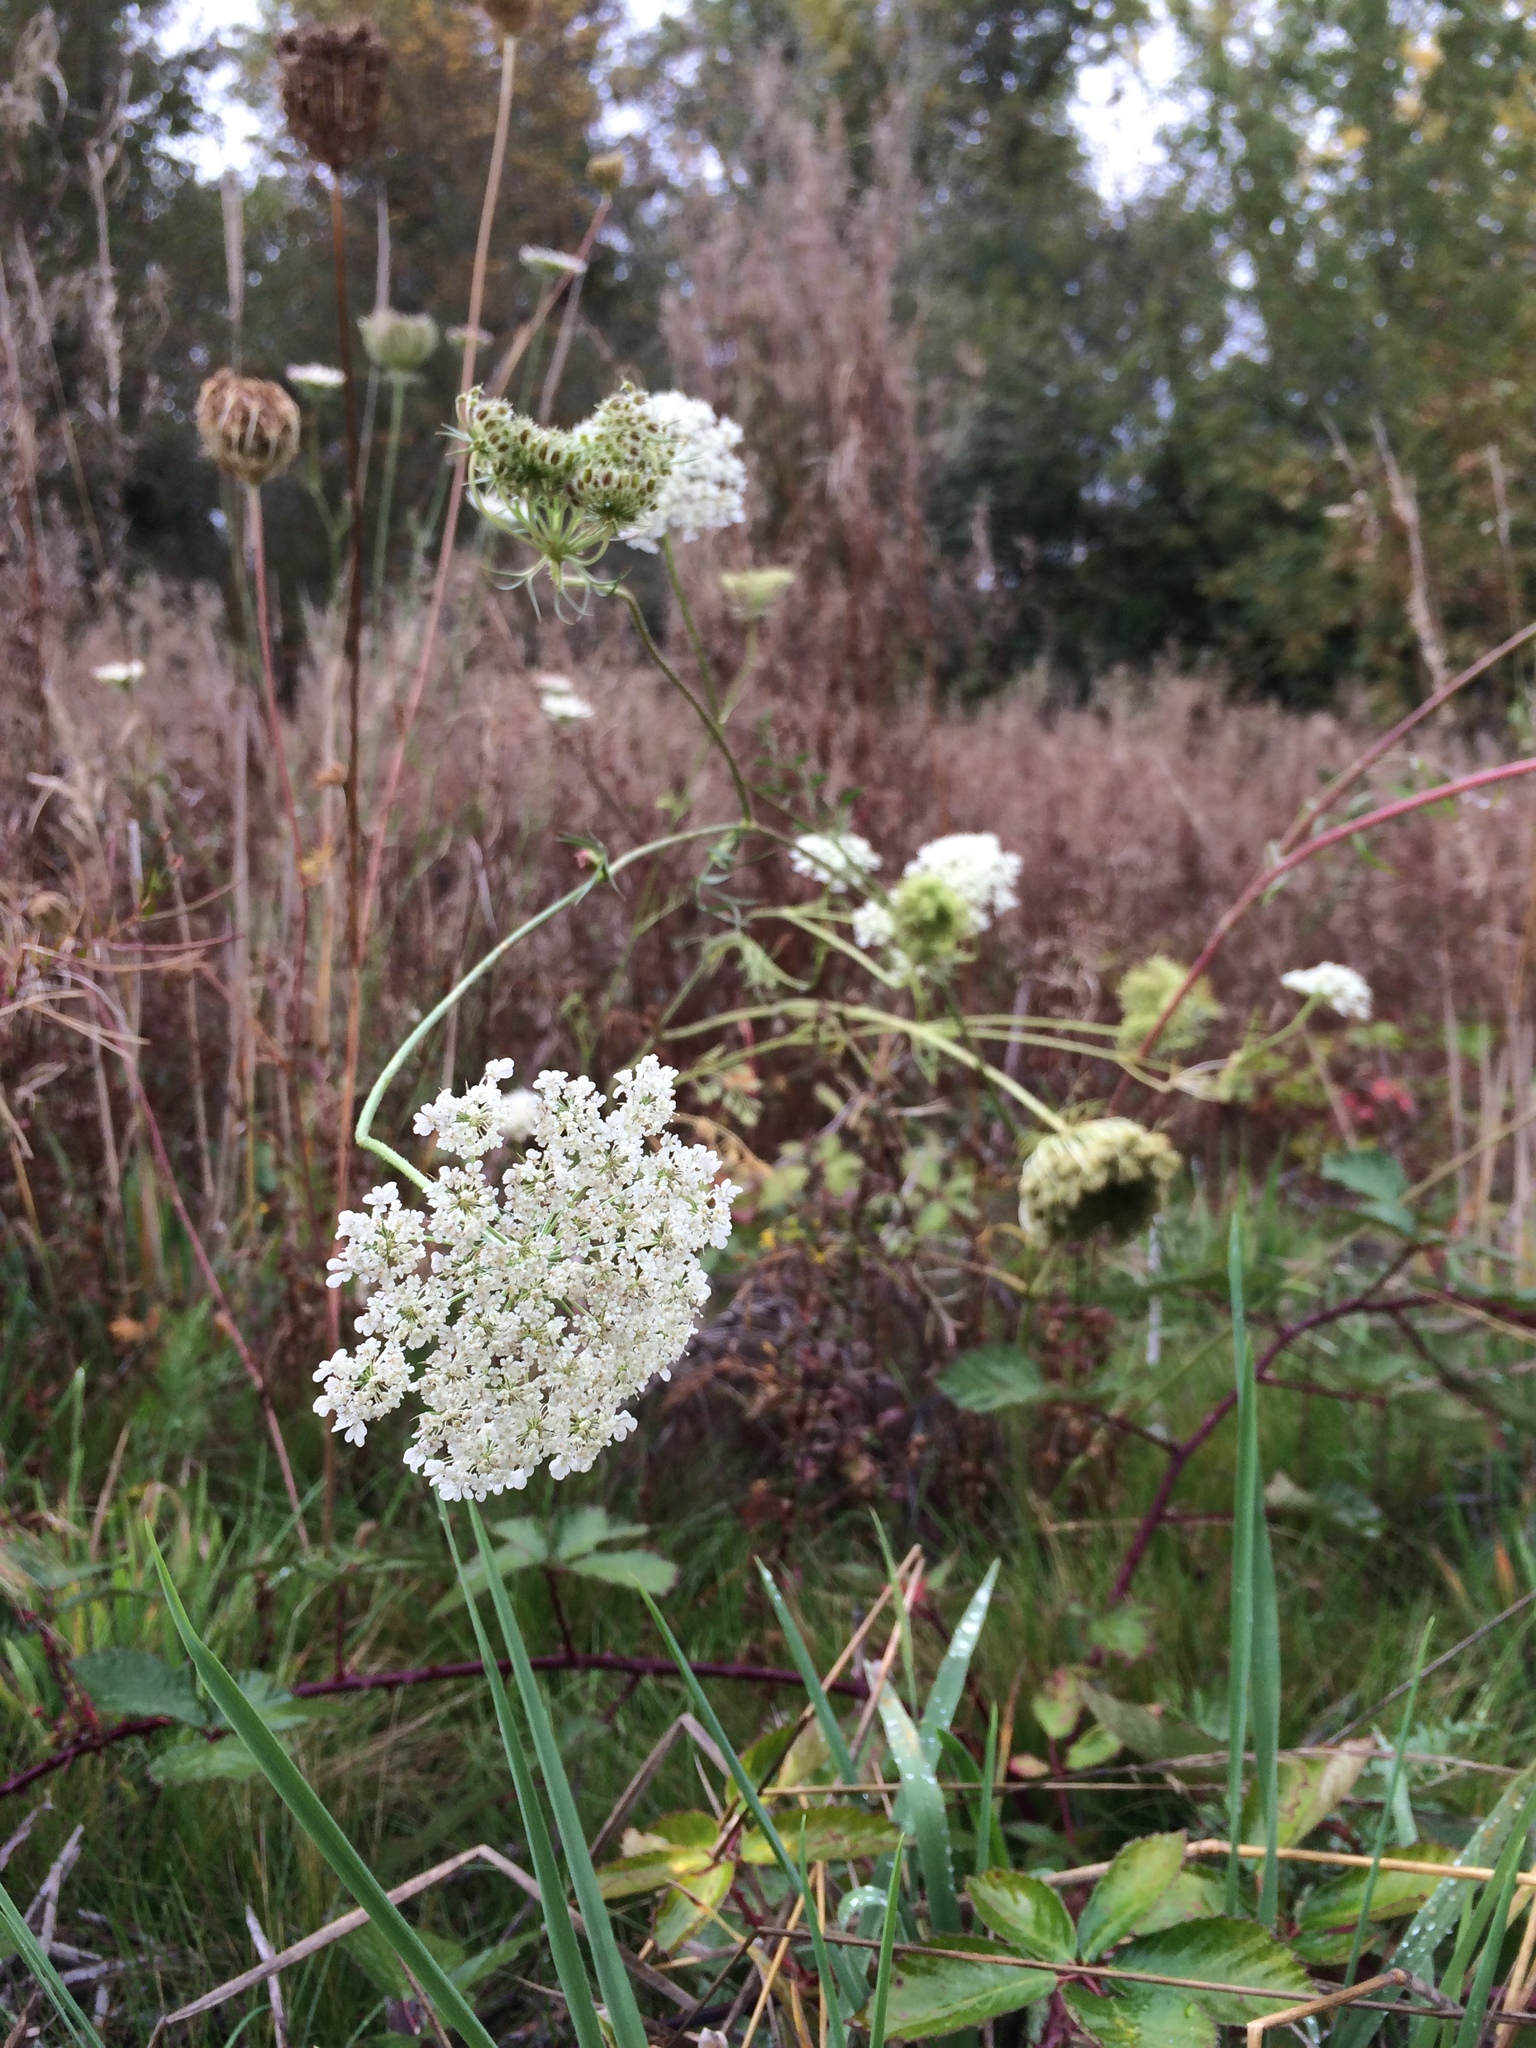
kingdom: Plantae
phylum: Tracheophyta
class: Magnoliopsida
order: Apiales
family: Apiaceae
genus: Daucus
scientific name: Daucus carota
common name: Wild carrot
